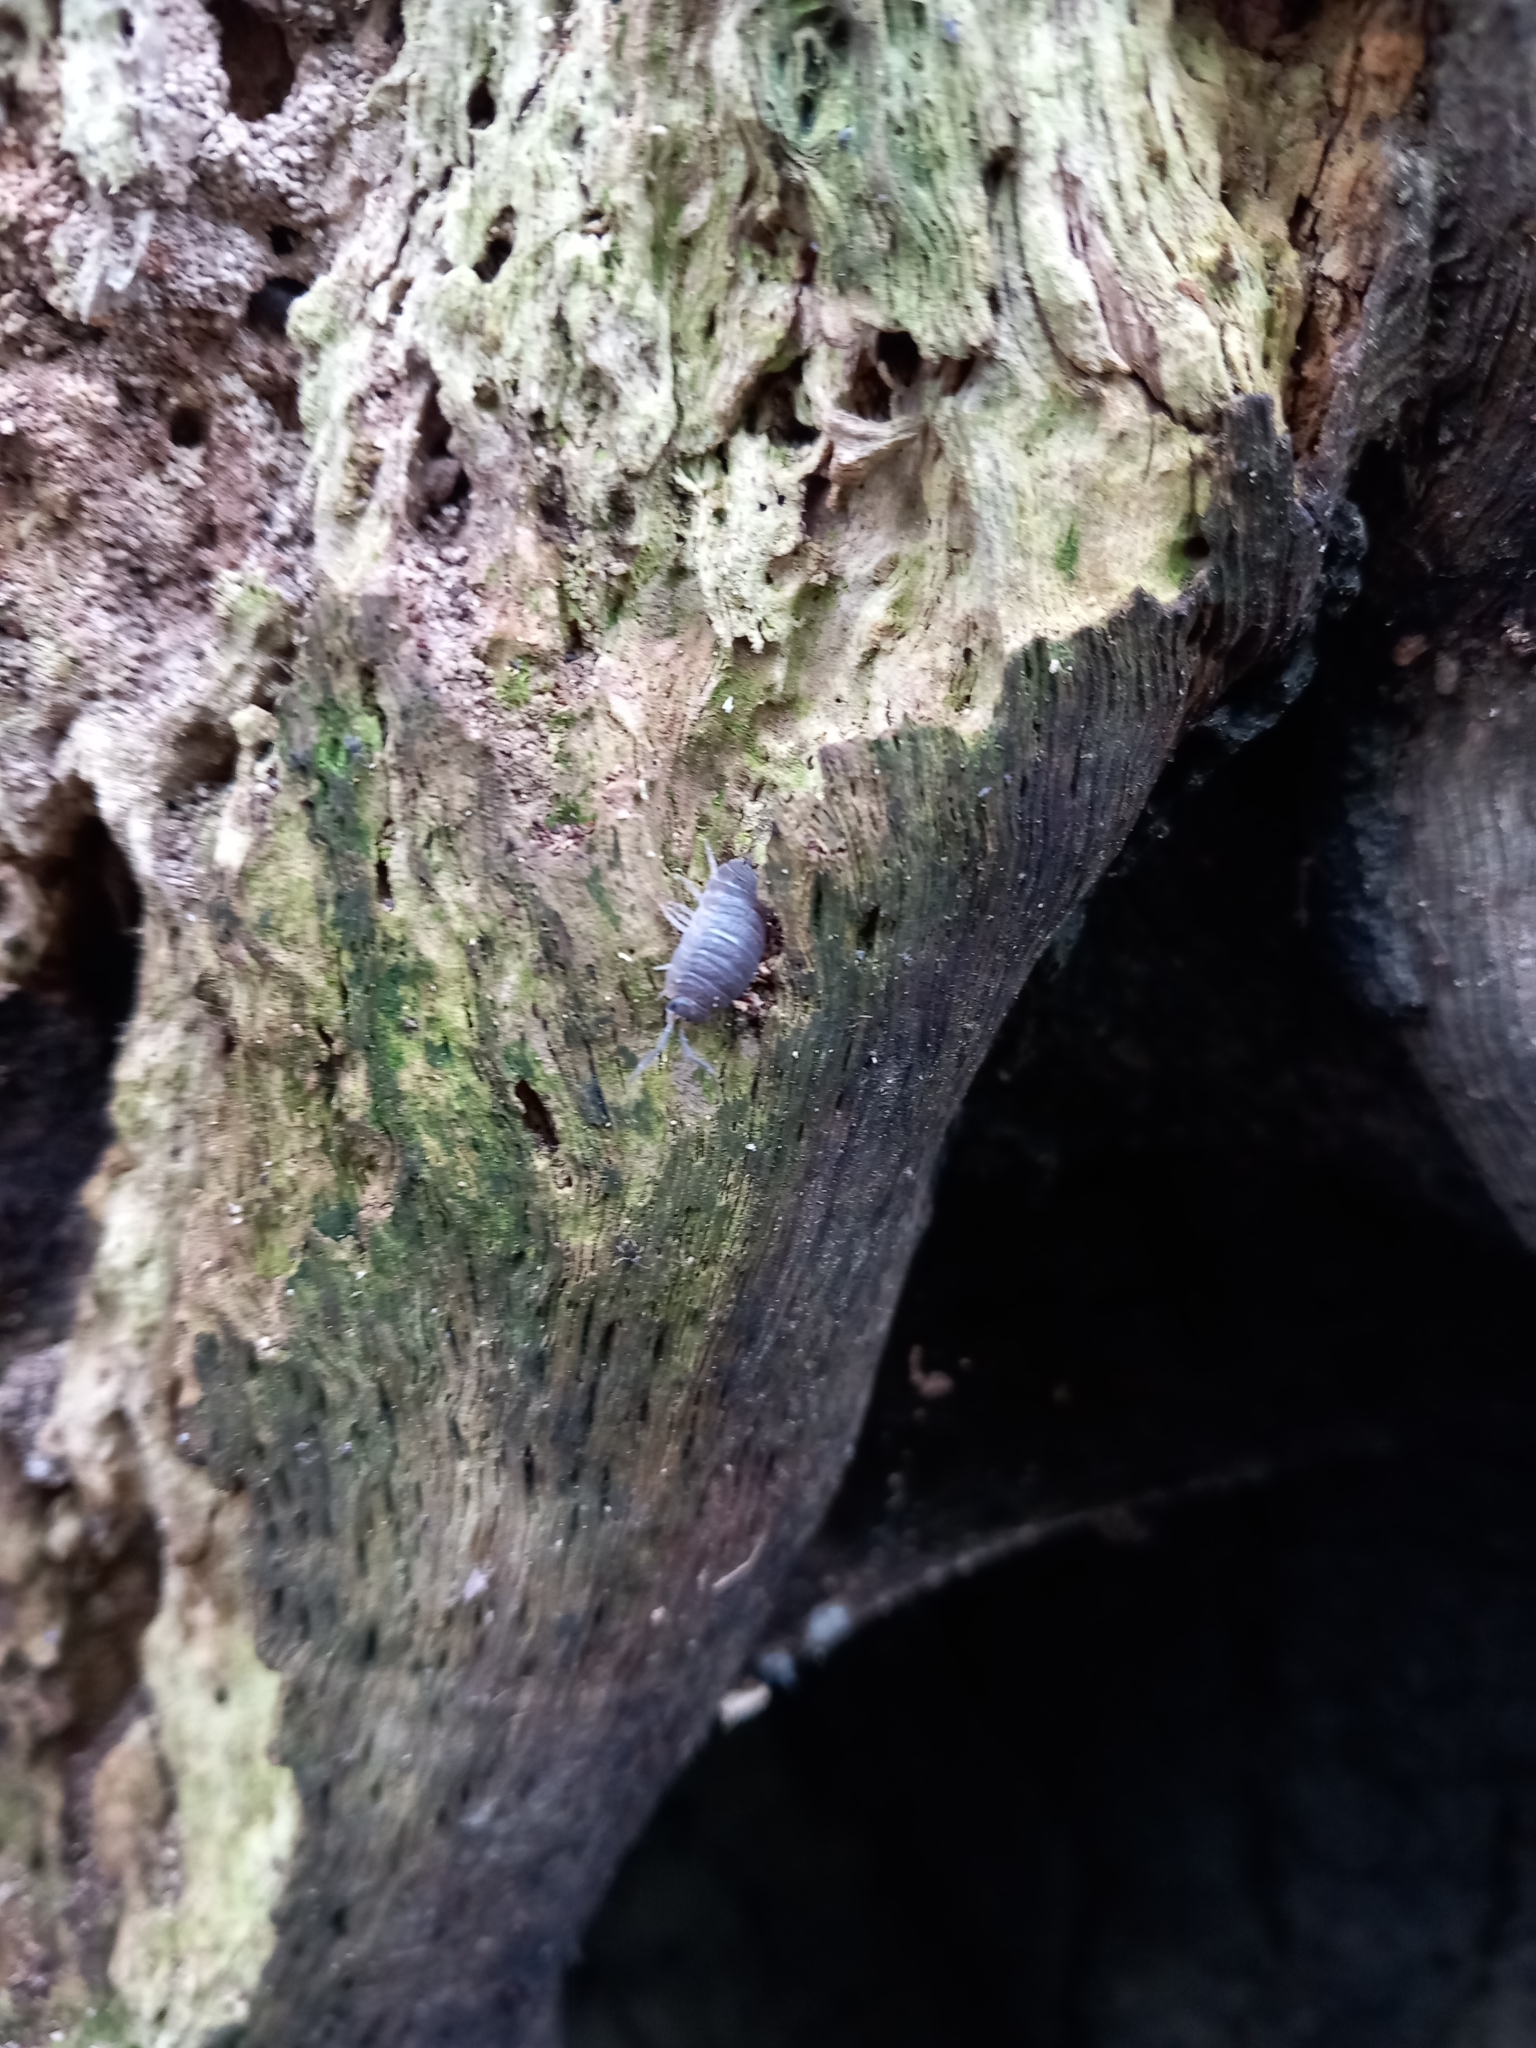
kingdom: Animalia
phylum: Arthropoda
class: Malacostraca
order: Isopoda
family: Porcellionidae
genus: Porcellio
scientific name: Porcellio scaber
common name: Common rough woodlouse
